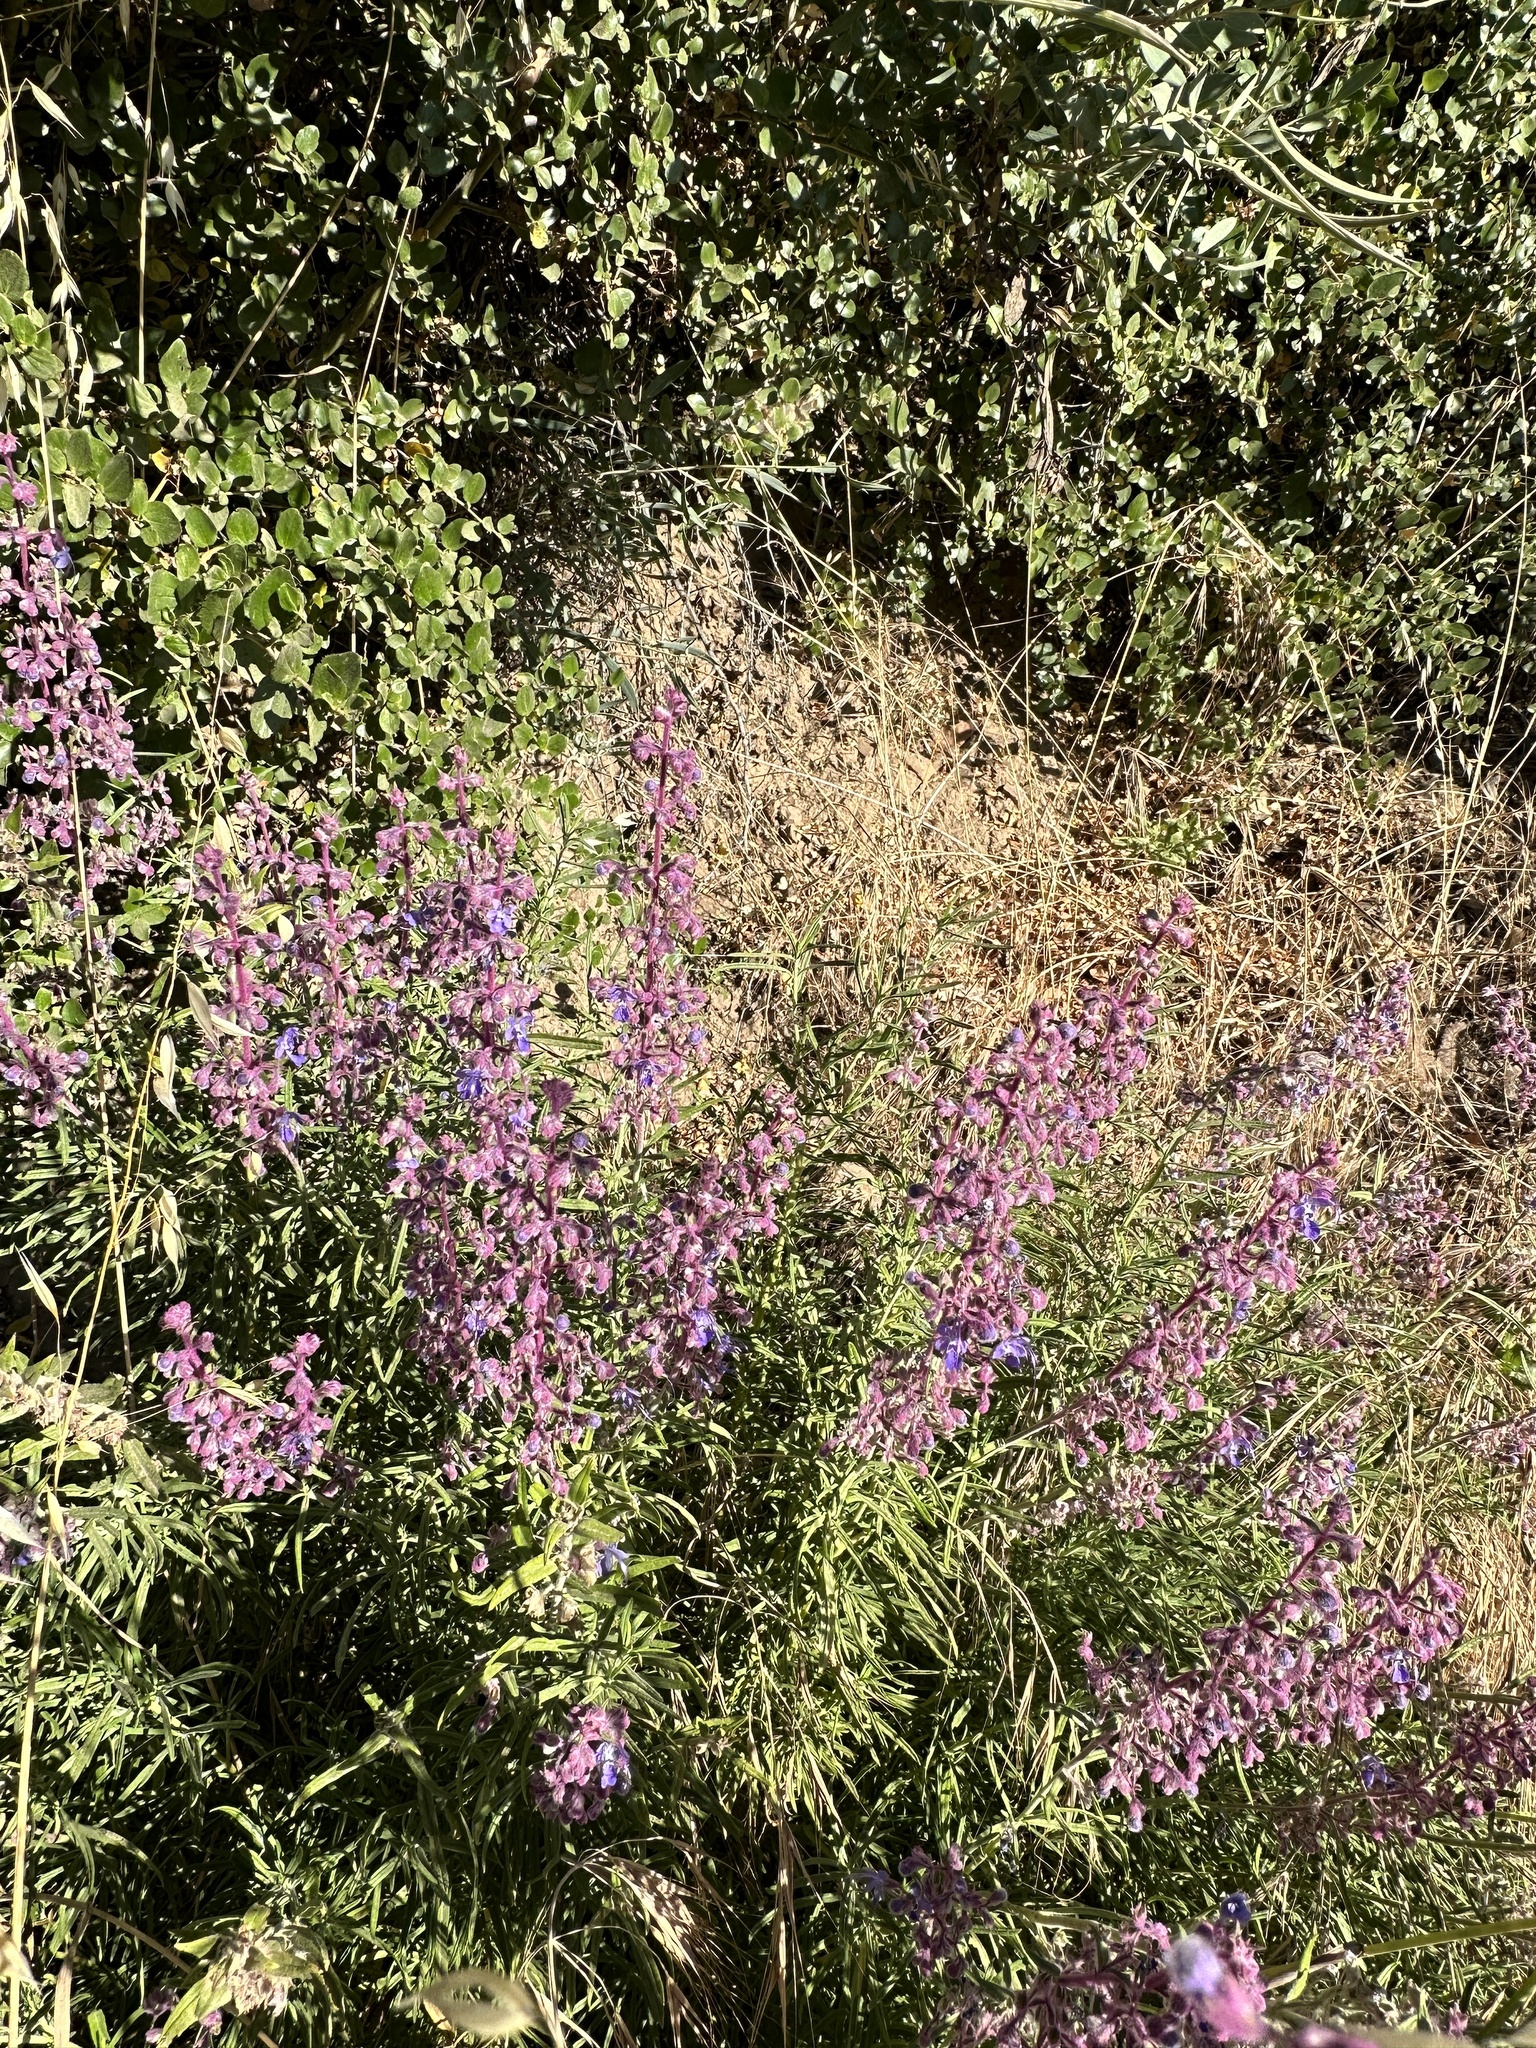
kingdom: Plantae
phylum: Tracheophyta
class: Magnoliopsida
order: Lamiales
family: Lamiaceae
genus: Trichostema
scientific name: Trichostema parishii
